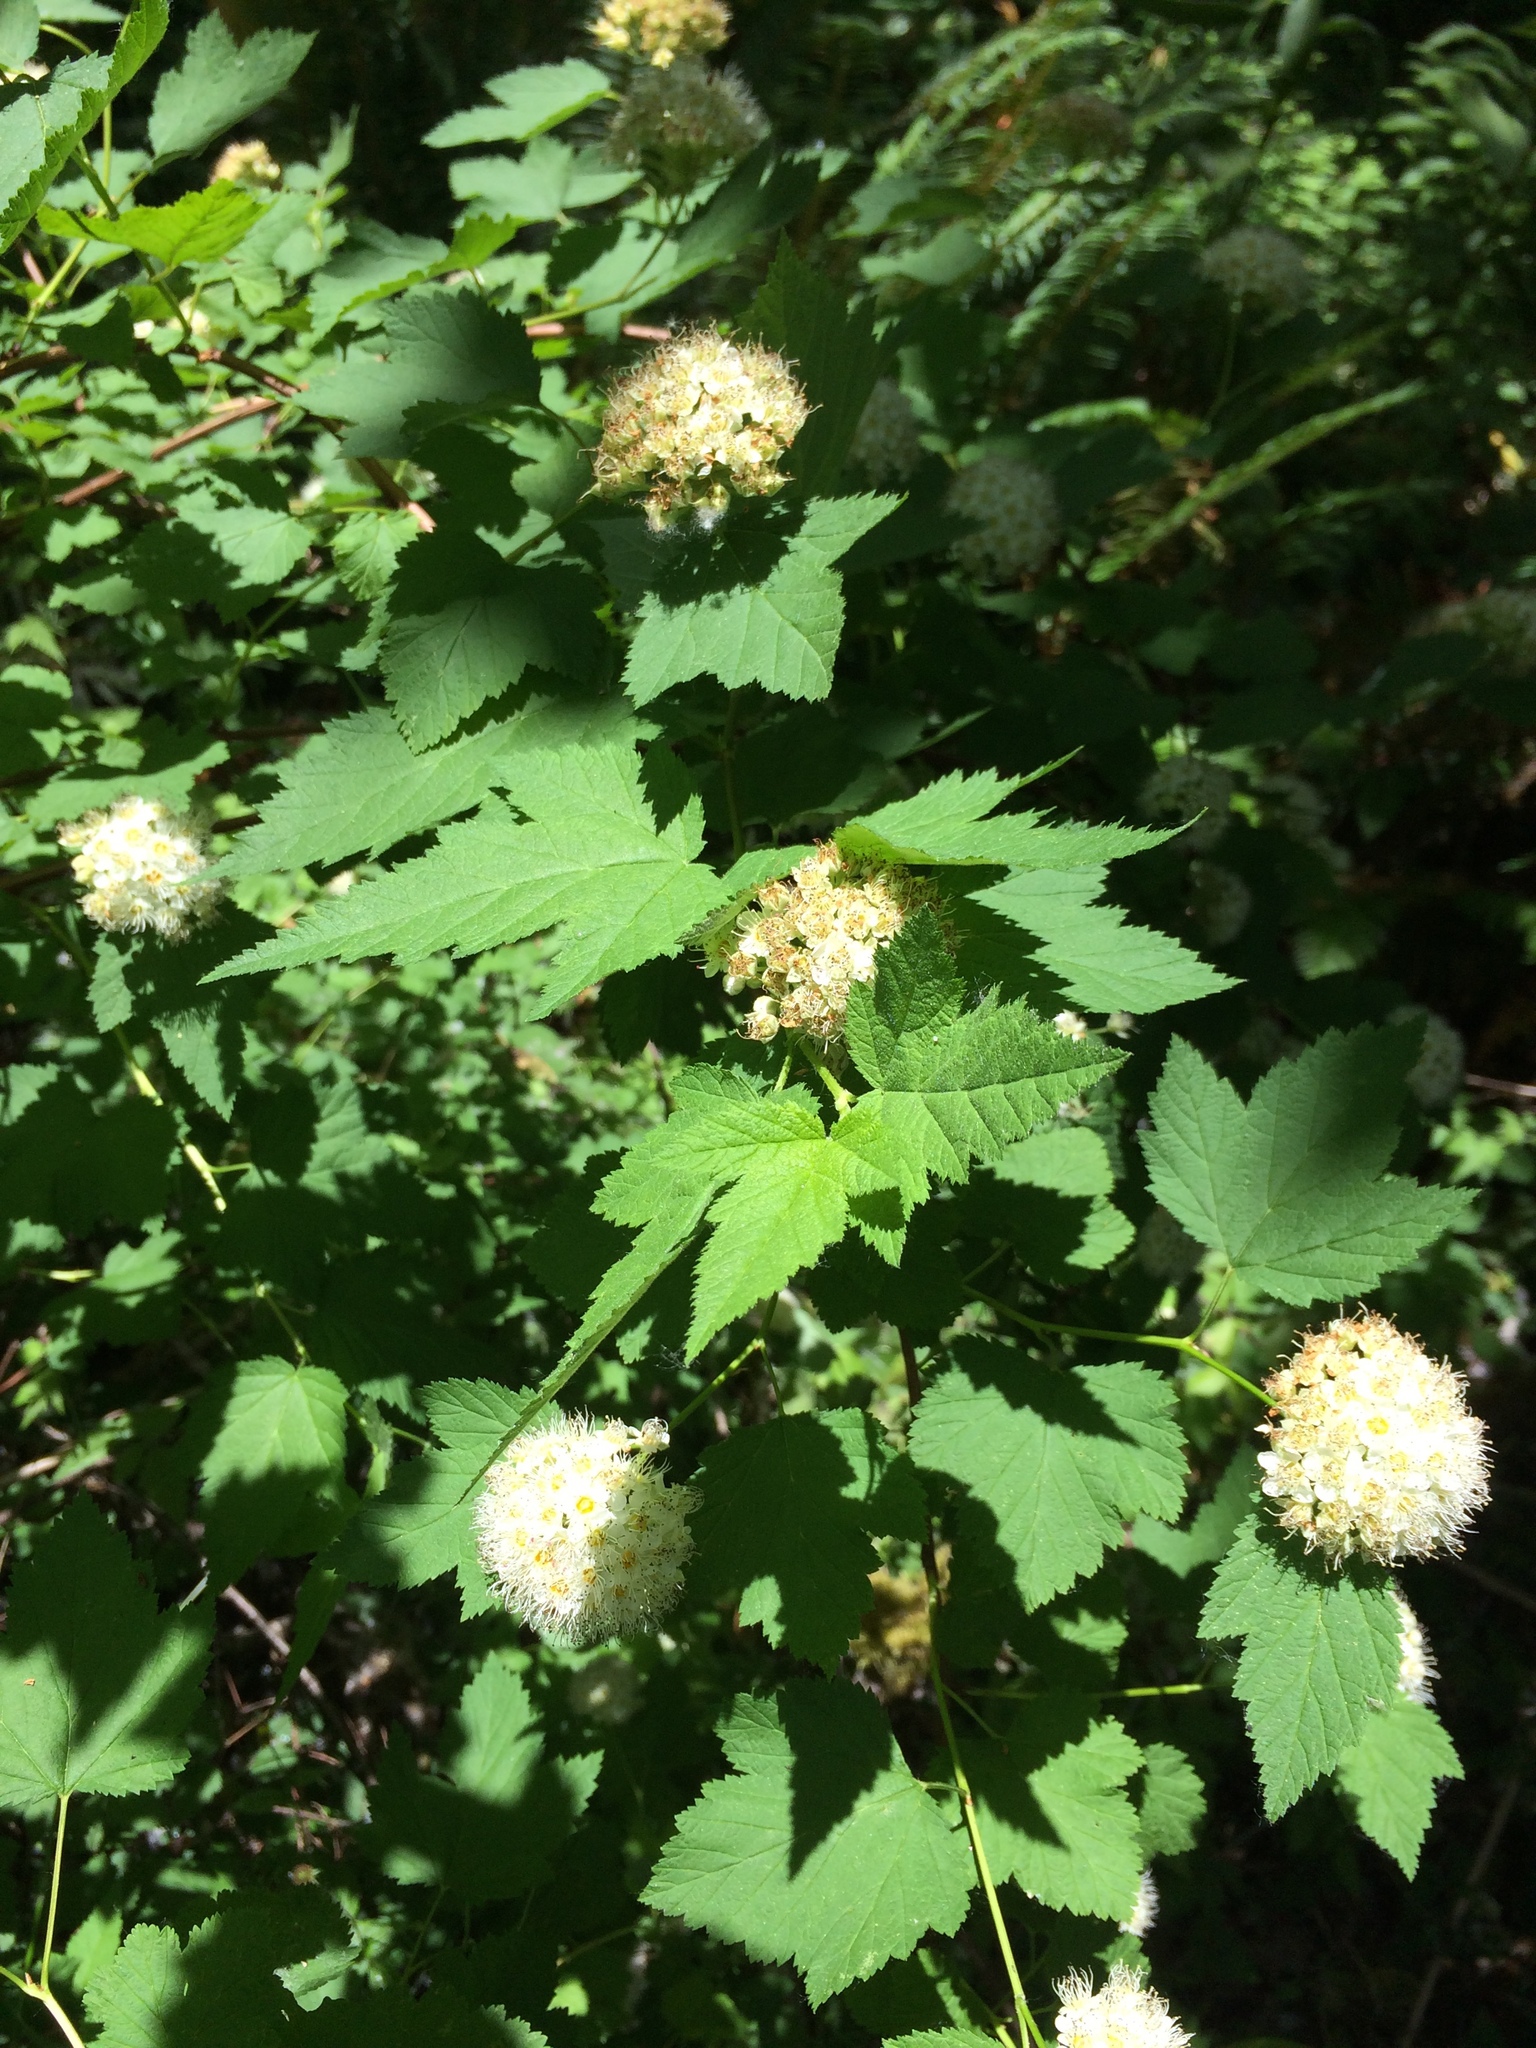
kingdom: Plantae
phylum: Tracheophyta
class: Magnoliopsida
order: Rosales
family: Rosaceae
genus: Physocarpus
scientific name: Physocarpus capitatus
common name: Pacific ninebark
